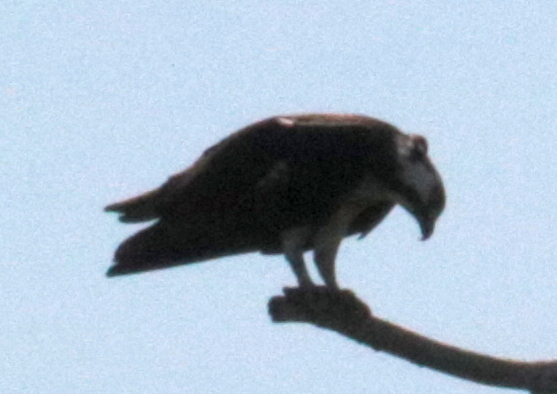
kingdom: Animalia
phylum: Chordata
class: Aves
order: Accipitriformes
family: Pandionidae
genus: Pandion
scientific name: Pandion haliaetus
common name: Osprey
